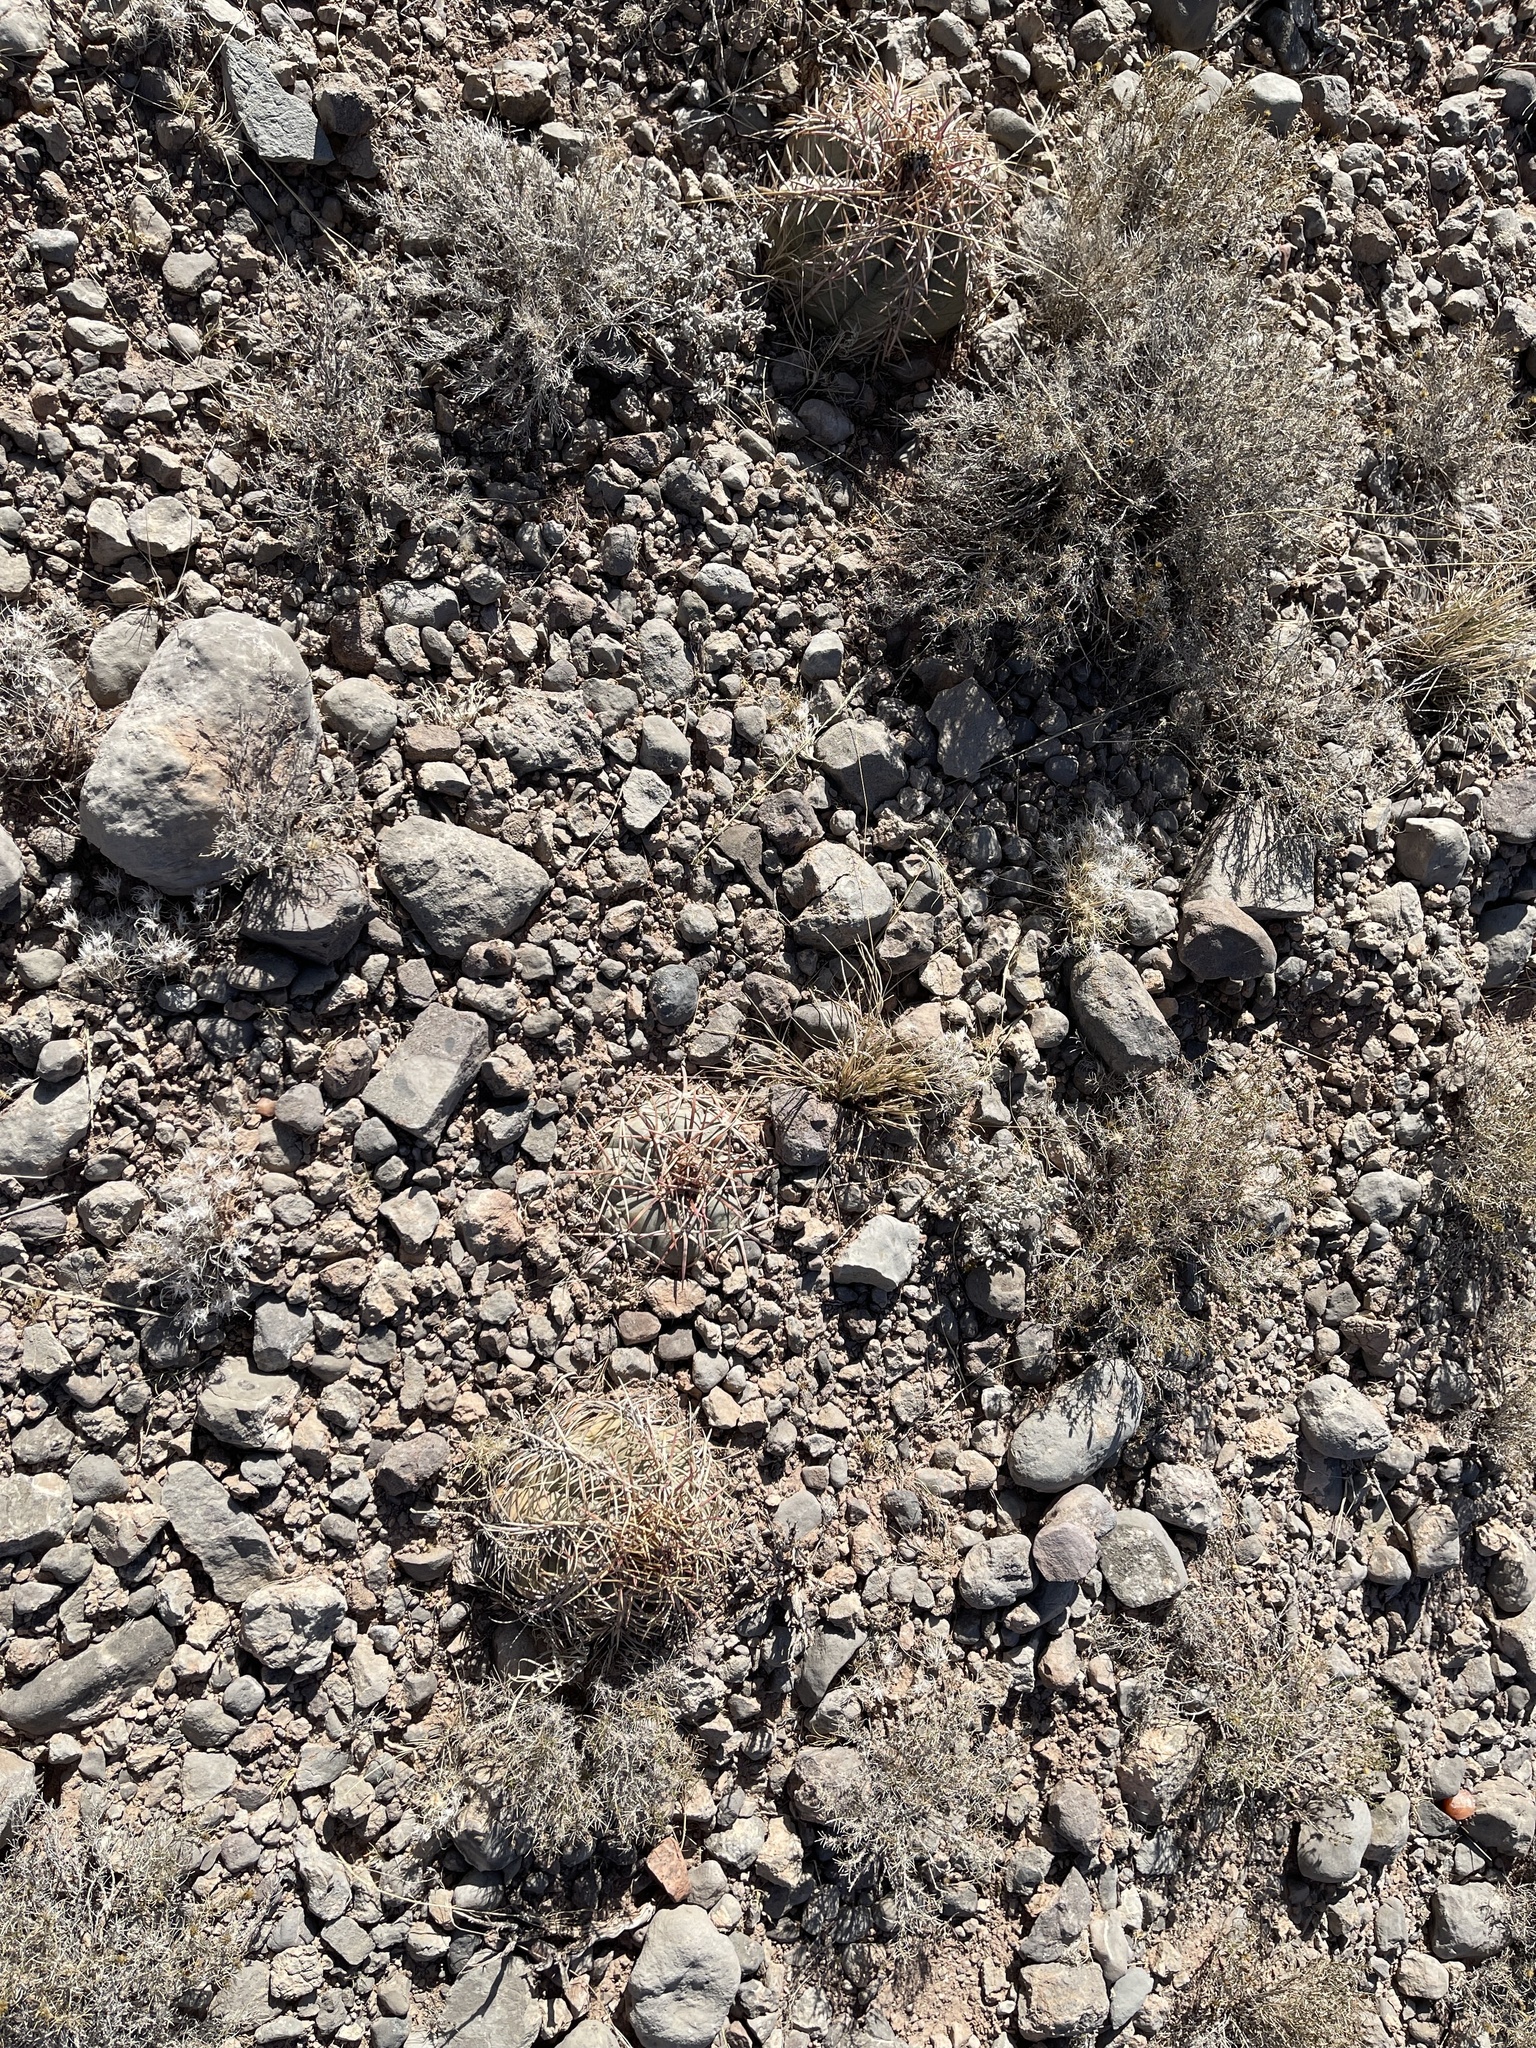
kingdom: Plantae
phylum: Tracheophyta
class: Magnoliopsida
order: Caryophyllales
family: Cactaceae
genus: Echinocactus
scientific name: Echinocactus horizonthalonius
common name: Devilshead
